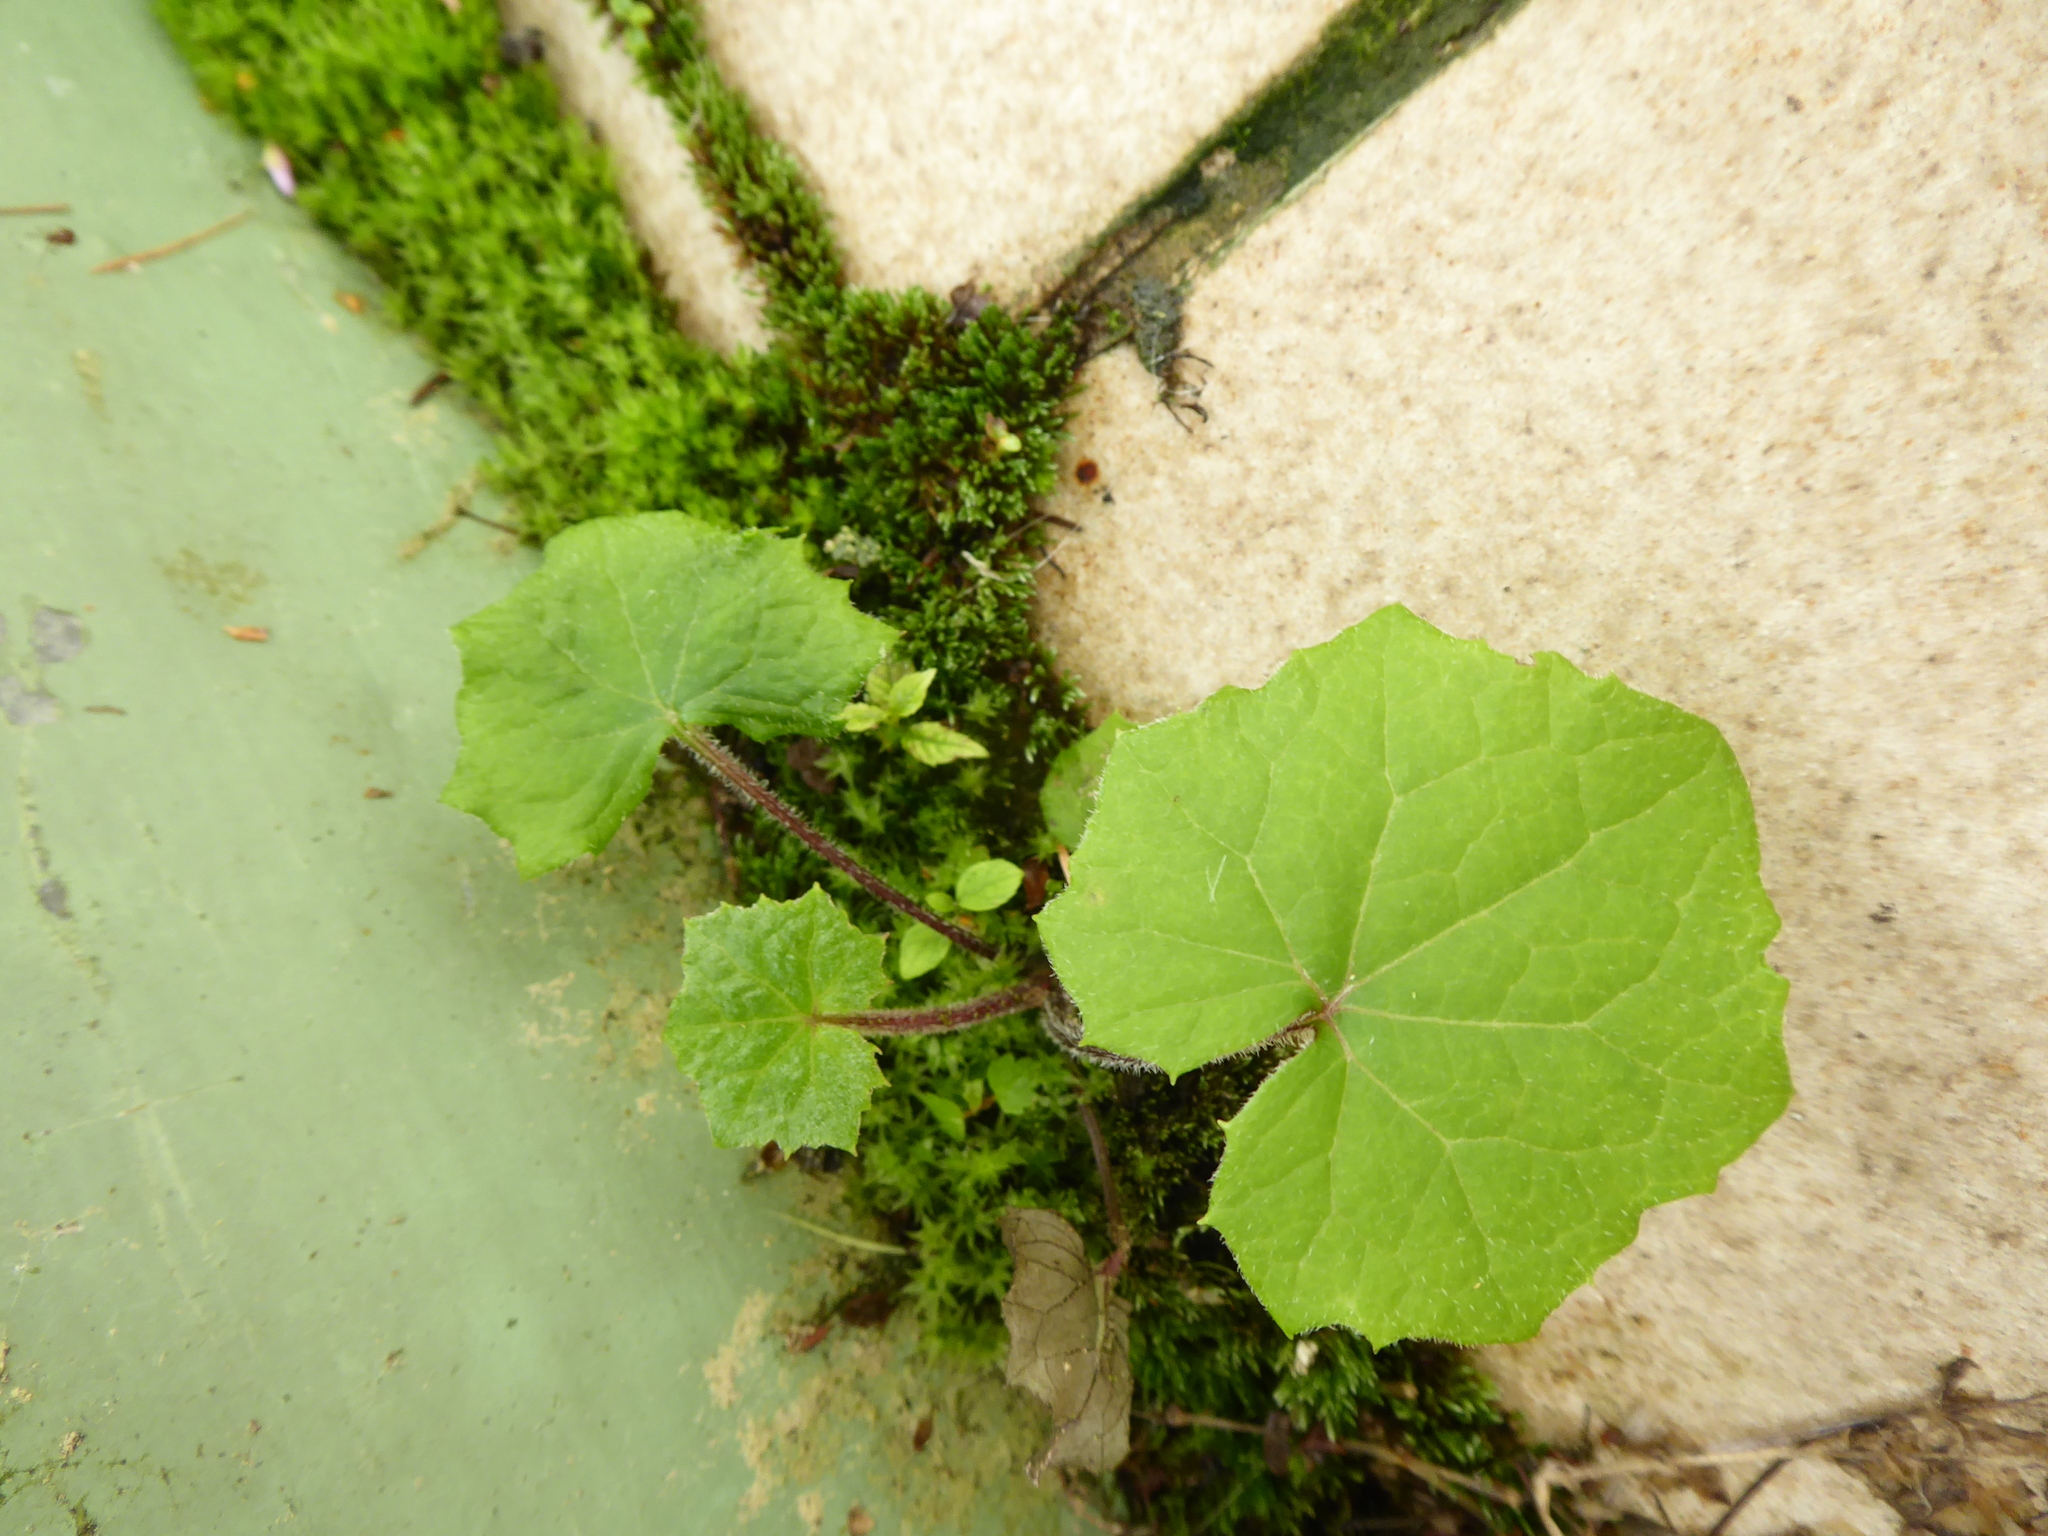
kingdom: Plantae
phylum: Tracheophyta
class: Magnoliopsida
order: Asterales
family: Asteraceae
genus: Tussilago
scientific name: Tussilago farfara
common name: Coltsfoot
